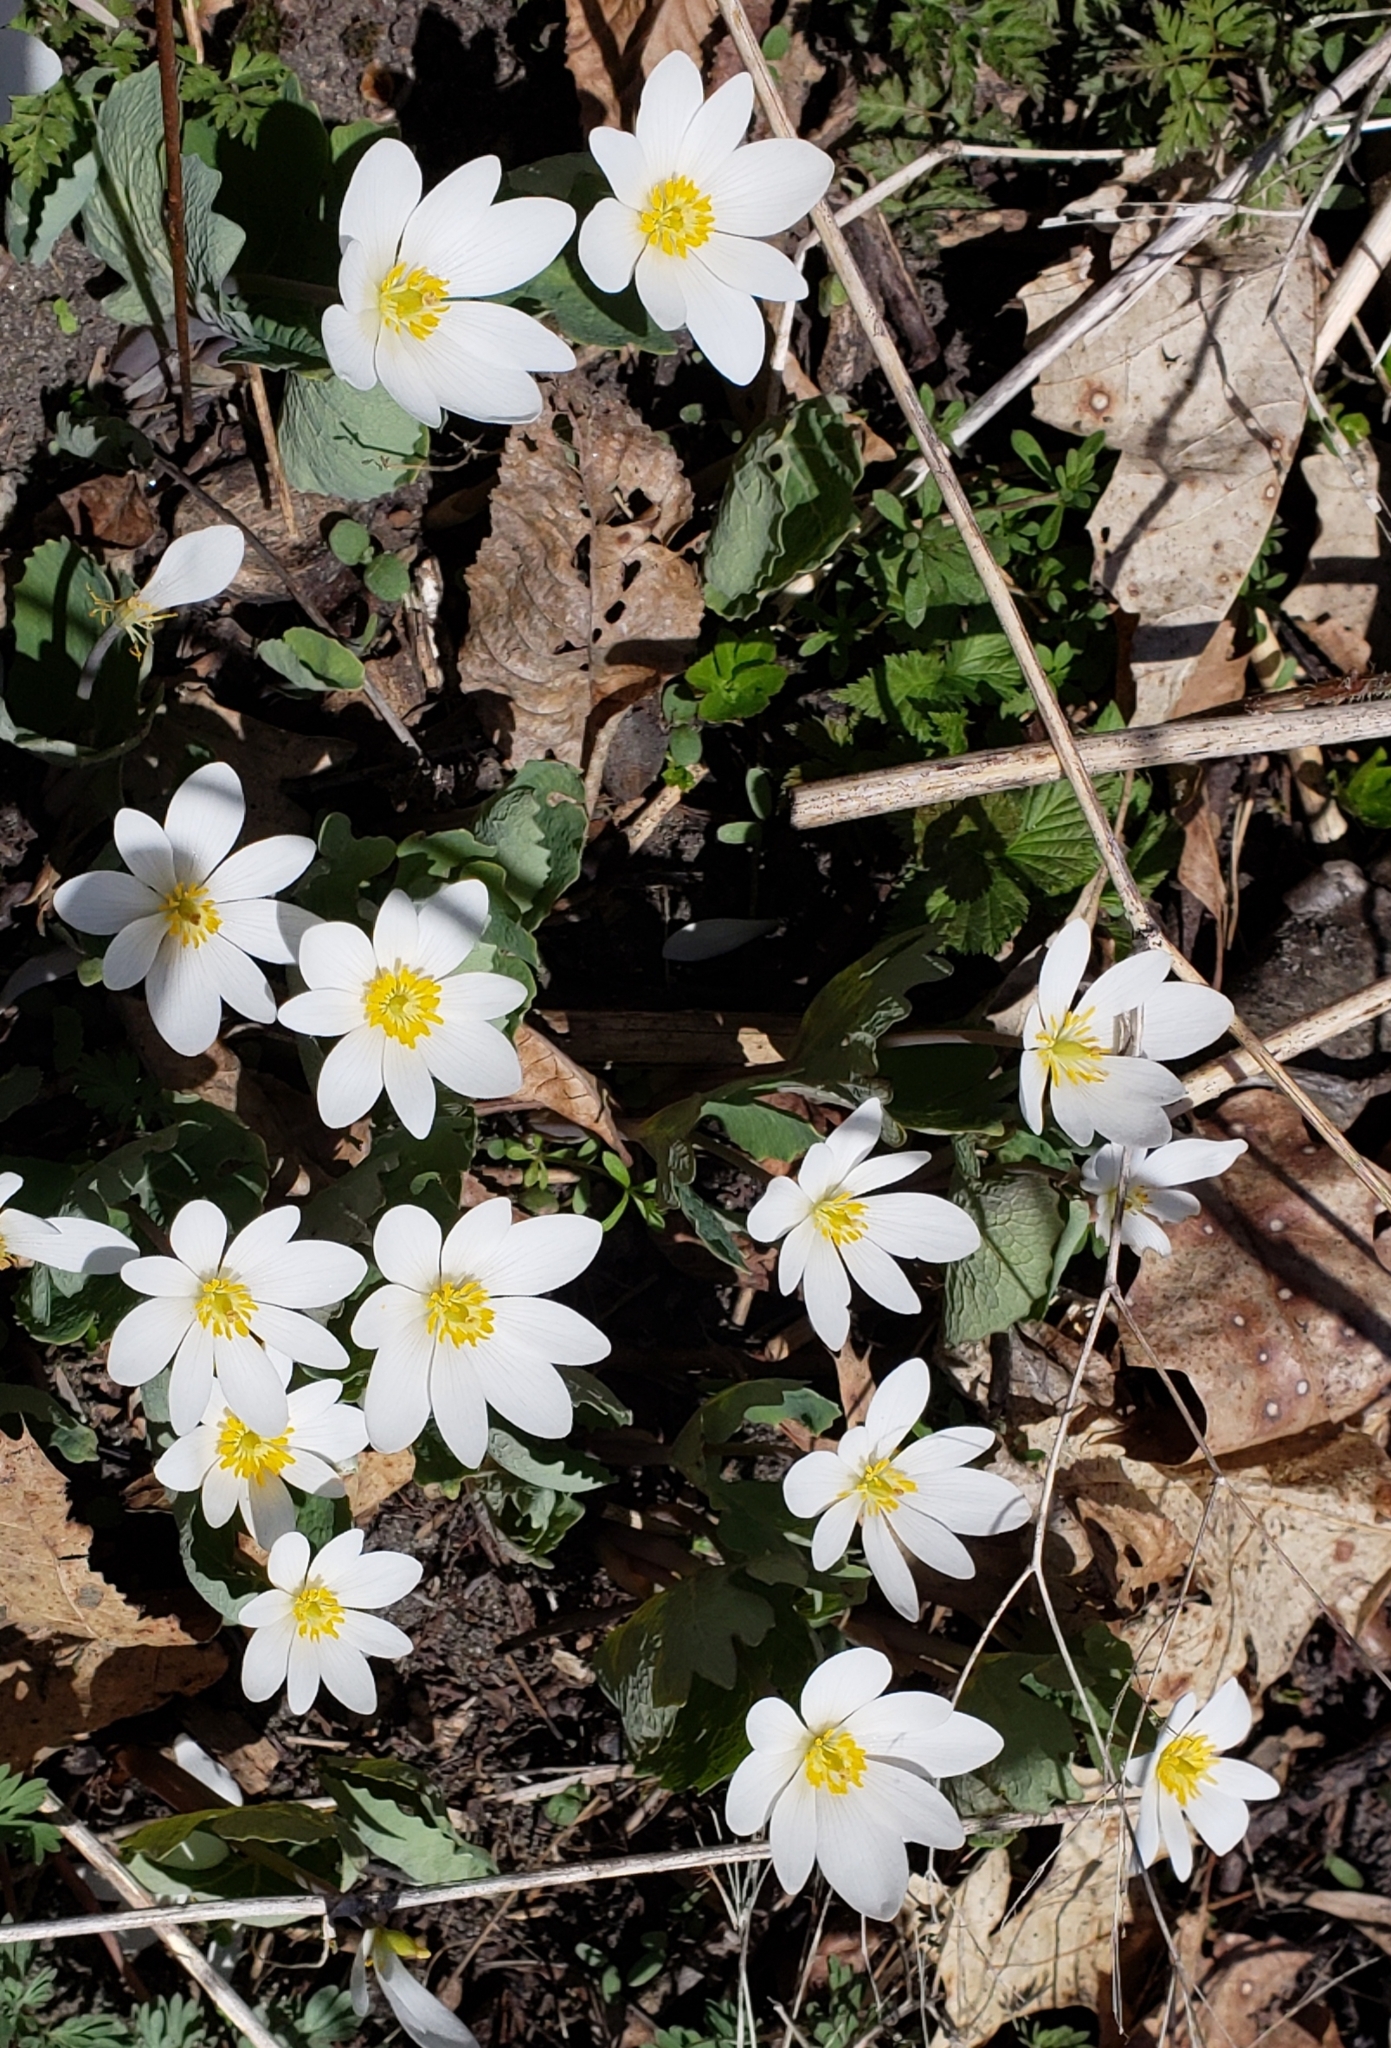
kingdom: Plantae
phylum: Tracheophyta
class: Magnoliopsida
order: Ranunculales
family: Papaveraceae
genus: Sanguinaria
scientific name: Sanguinaria canadensis
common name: Bloodroot
